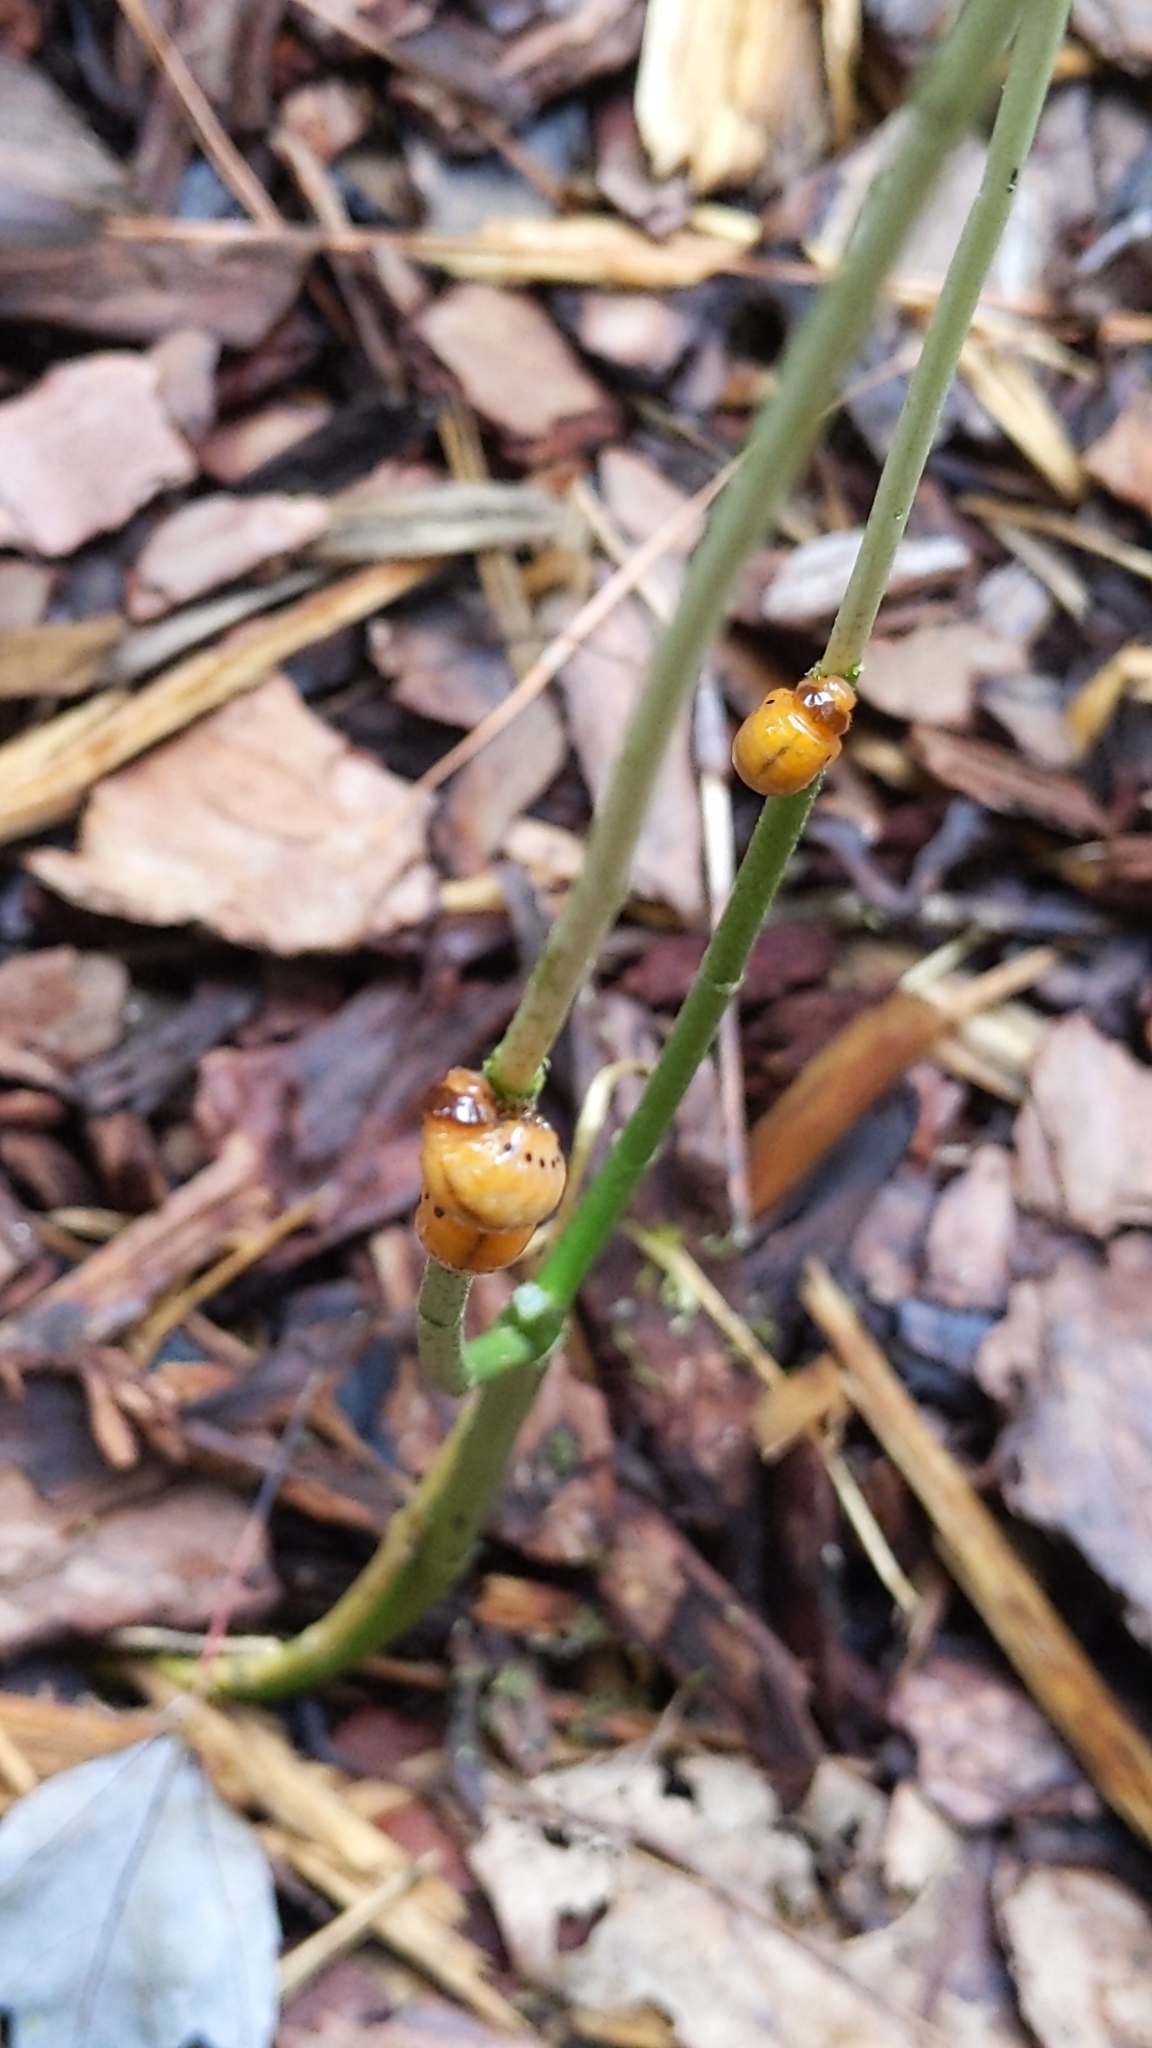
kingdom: Animalia
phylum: Arthropoda
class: Insecta
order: Coleoptera
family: Chrysomelidae
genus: Labidomera
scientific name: Labidomera clivicollis
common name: Swamp milkweed leaf beetle
